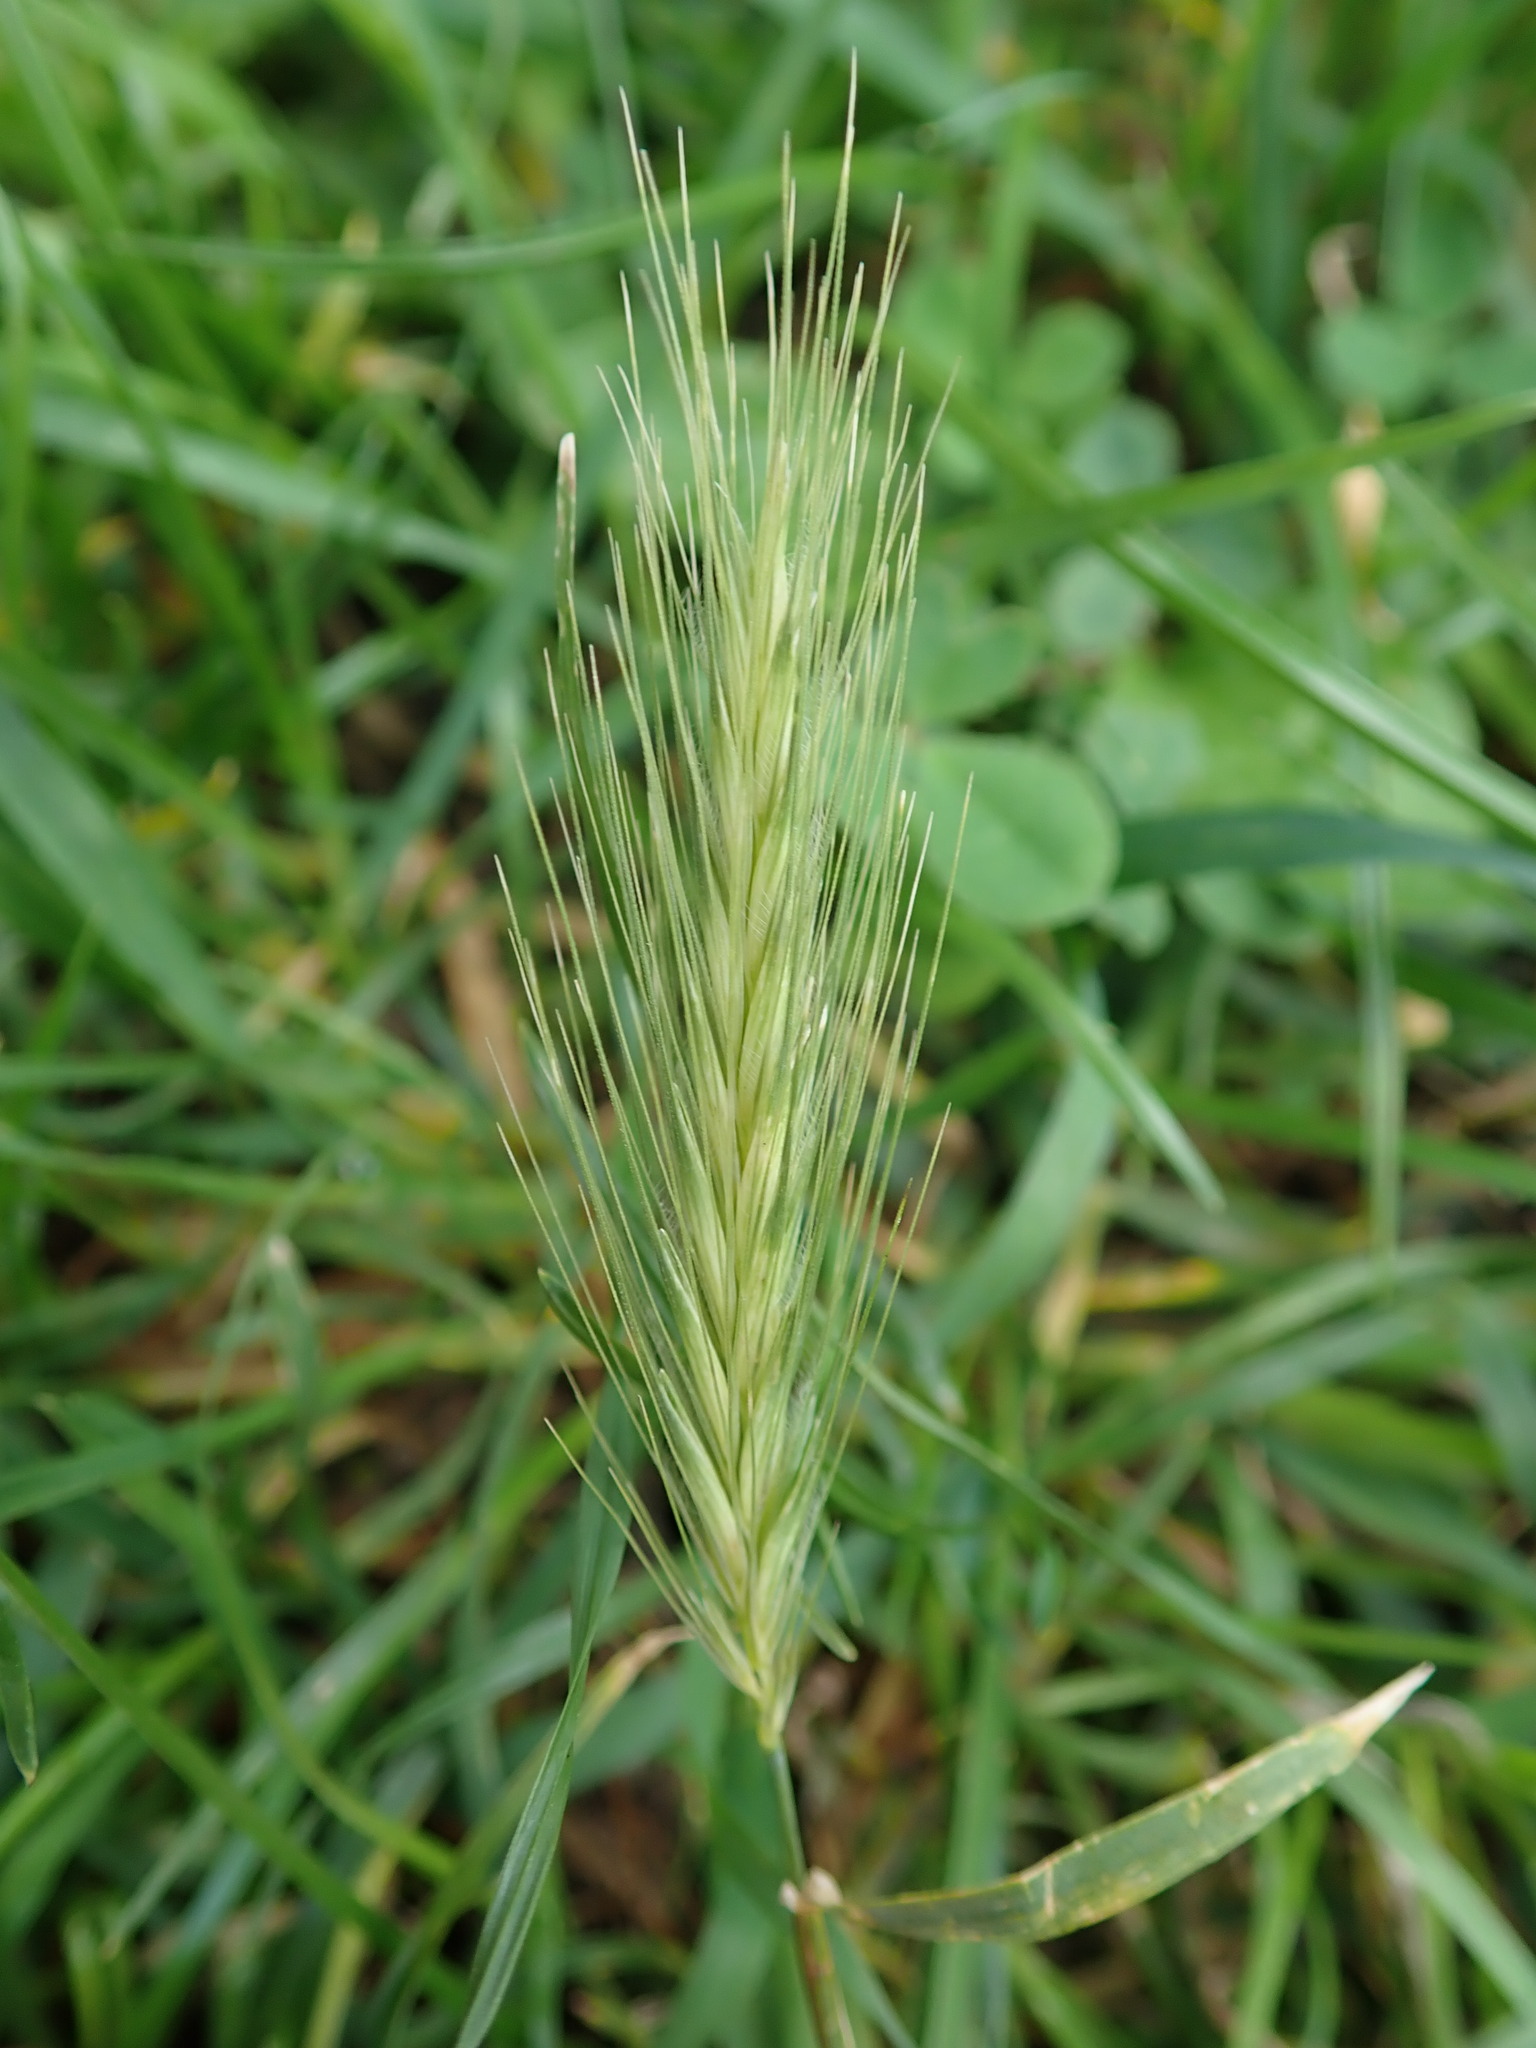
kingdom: Plantae
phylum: Tracheophyta
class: Liliopsida
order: Poales
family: Poaceae
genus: Hordeum
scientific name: Hordeum murinum
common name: Wall barley
